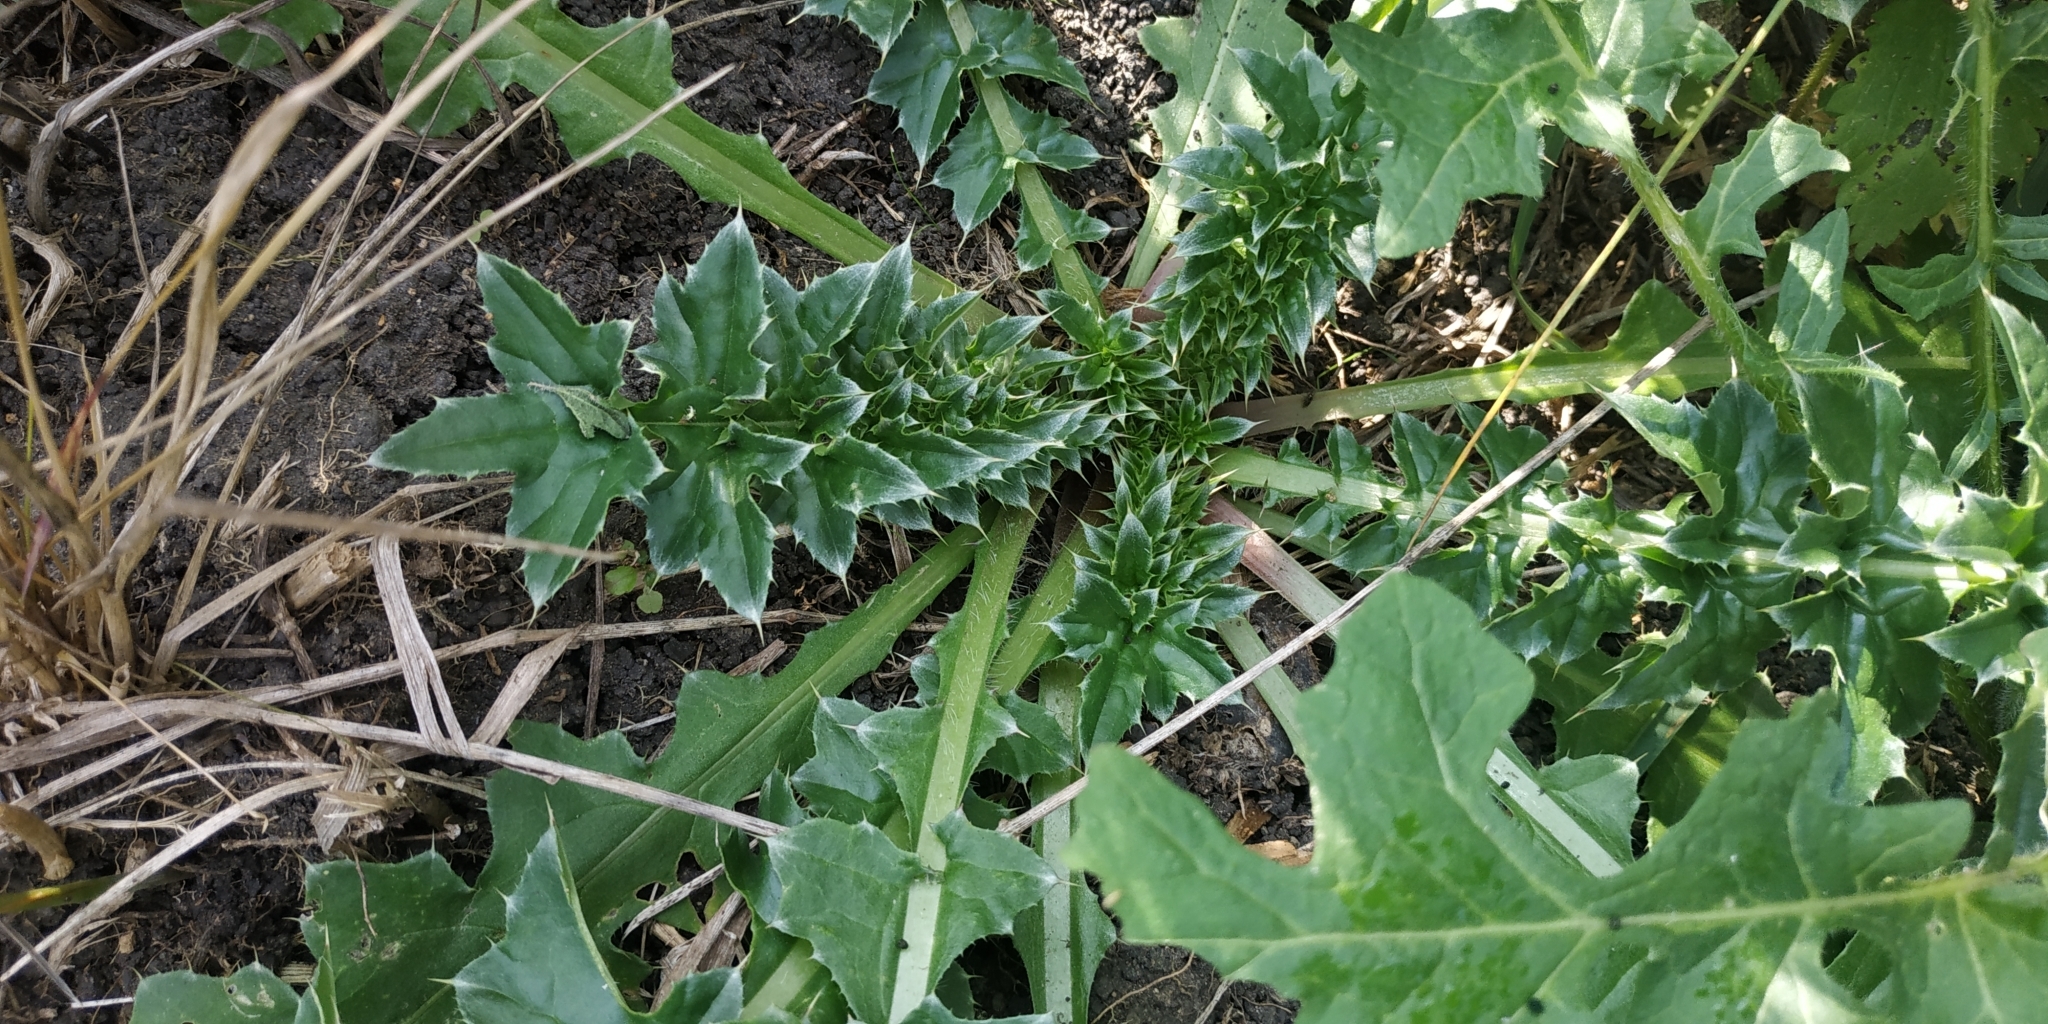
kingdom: Plantae
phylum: Tracheophyta
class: Magnoliopsida
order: Asterales
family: Asteraceae
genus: Carduus
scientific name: Carduus nutans
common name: Musk thistle
